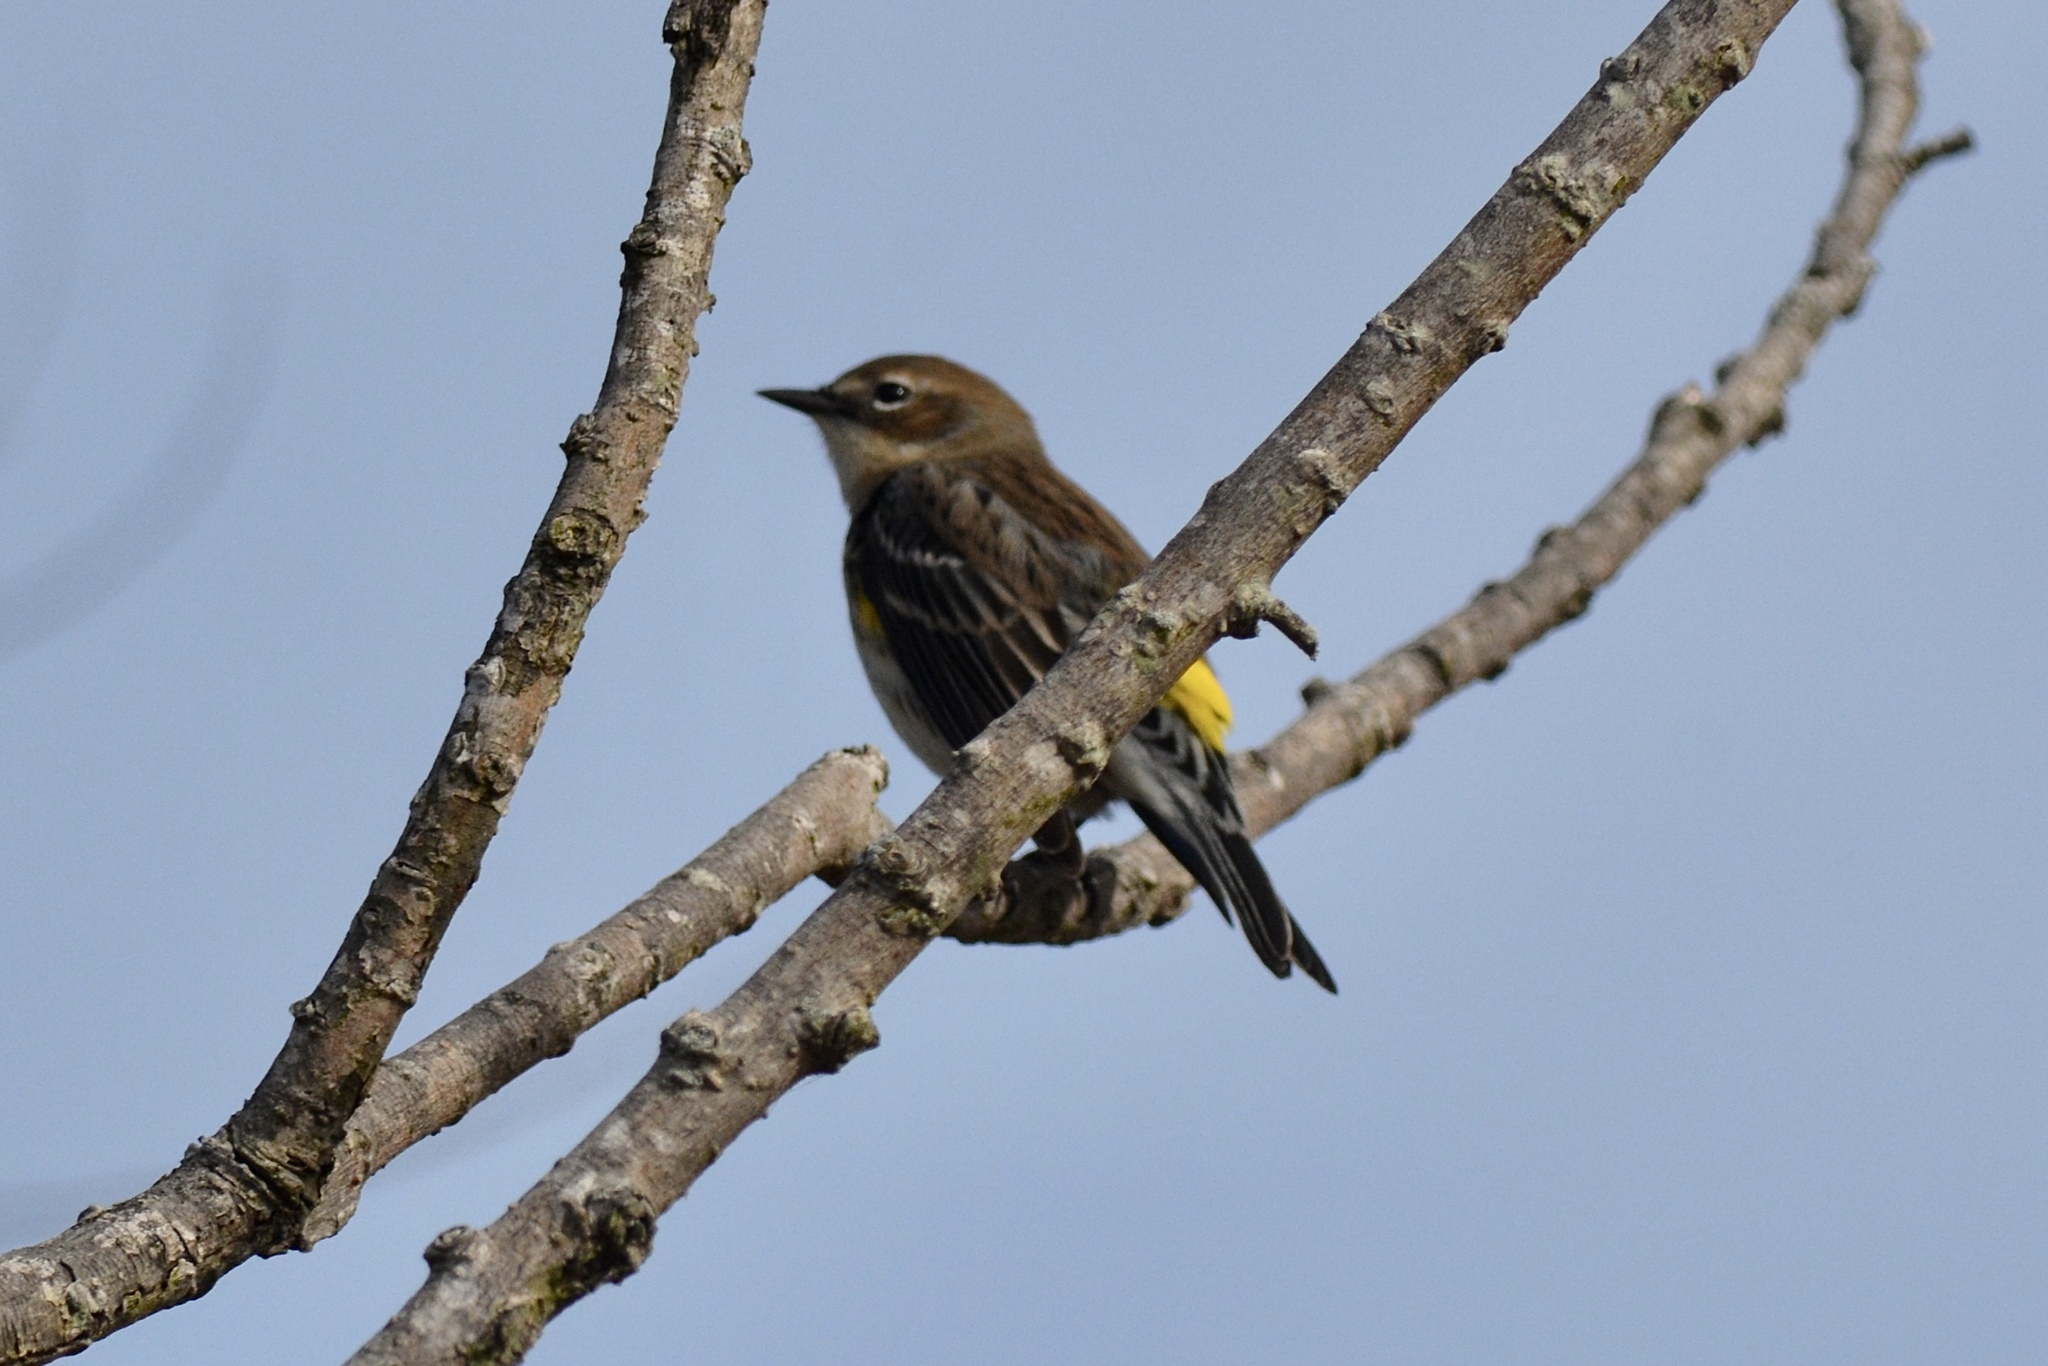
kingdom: Animalia
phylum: Chordata
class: Aves
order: Passeriformes
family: Parulidae
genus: Setophaga
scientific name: Setophaga coronata
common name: Myrtle warbler
